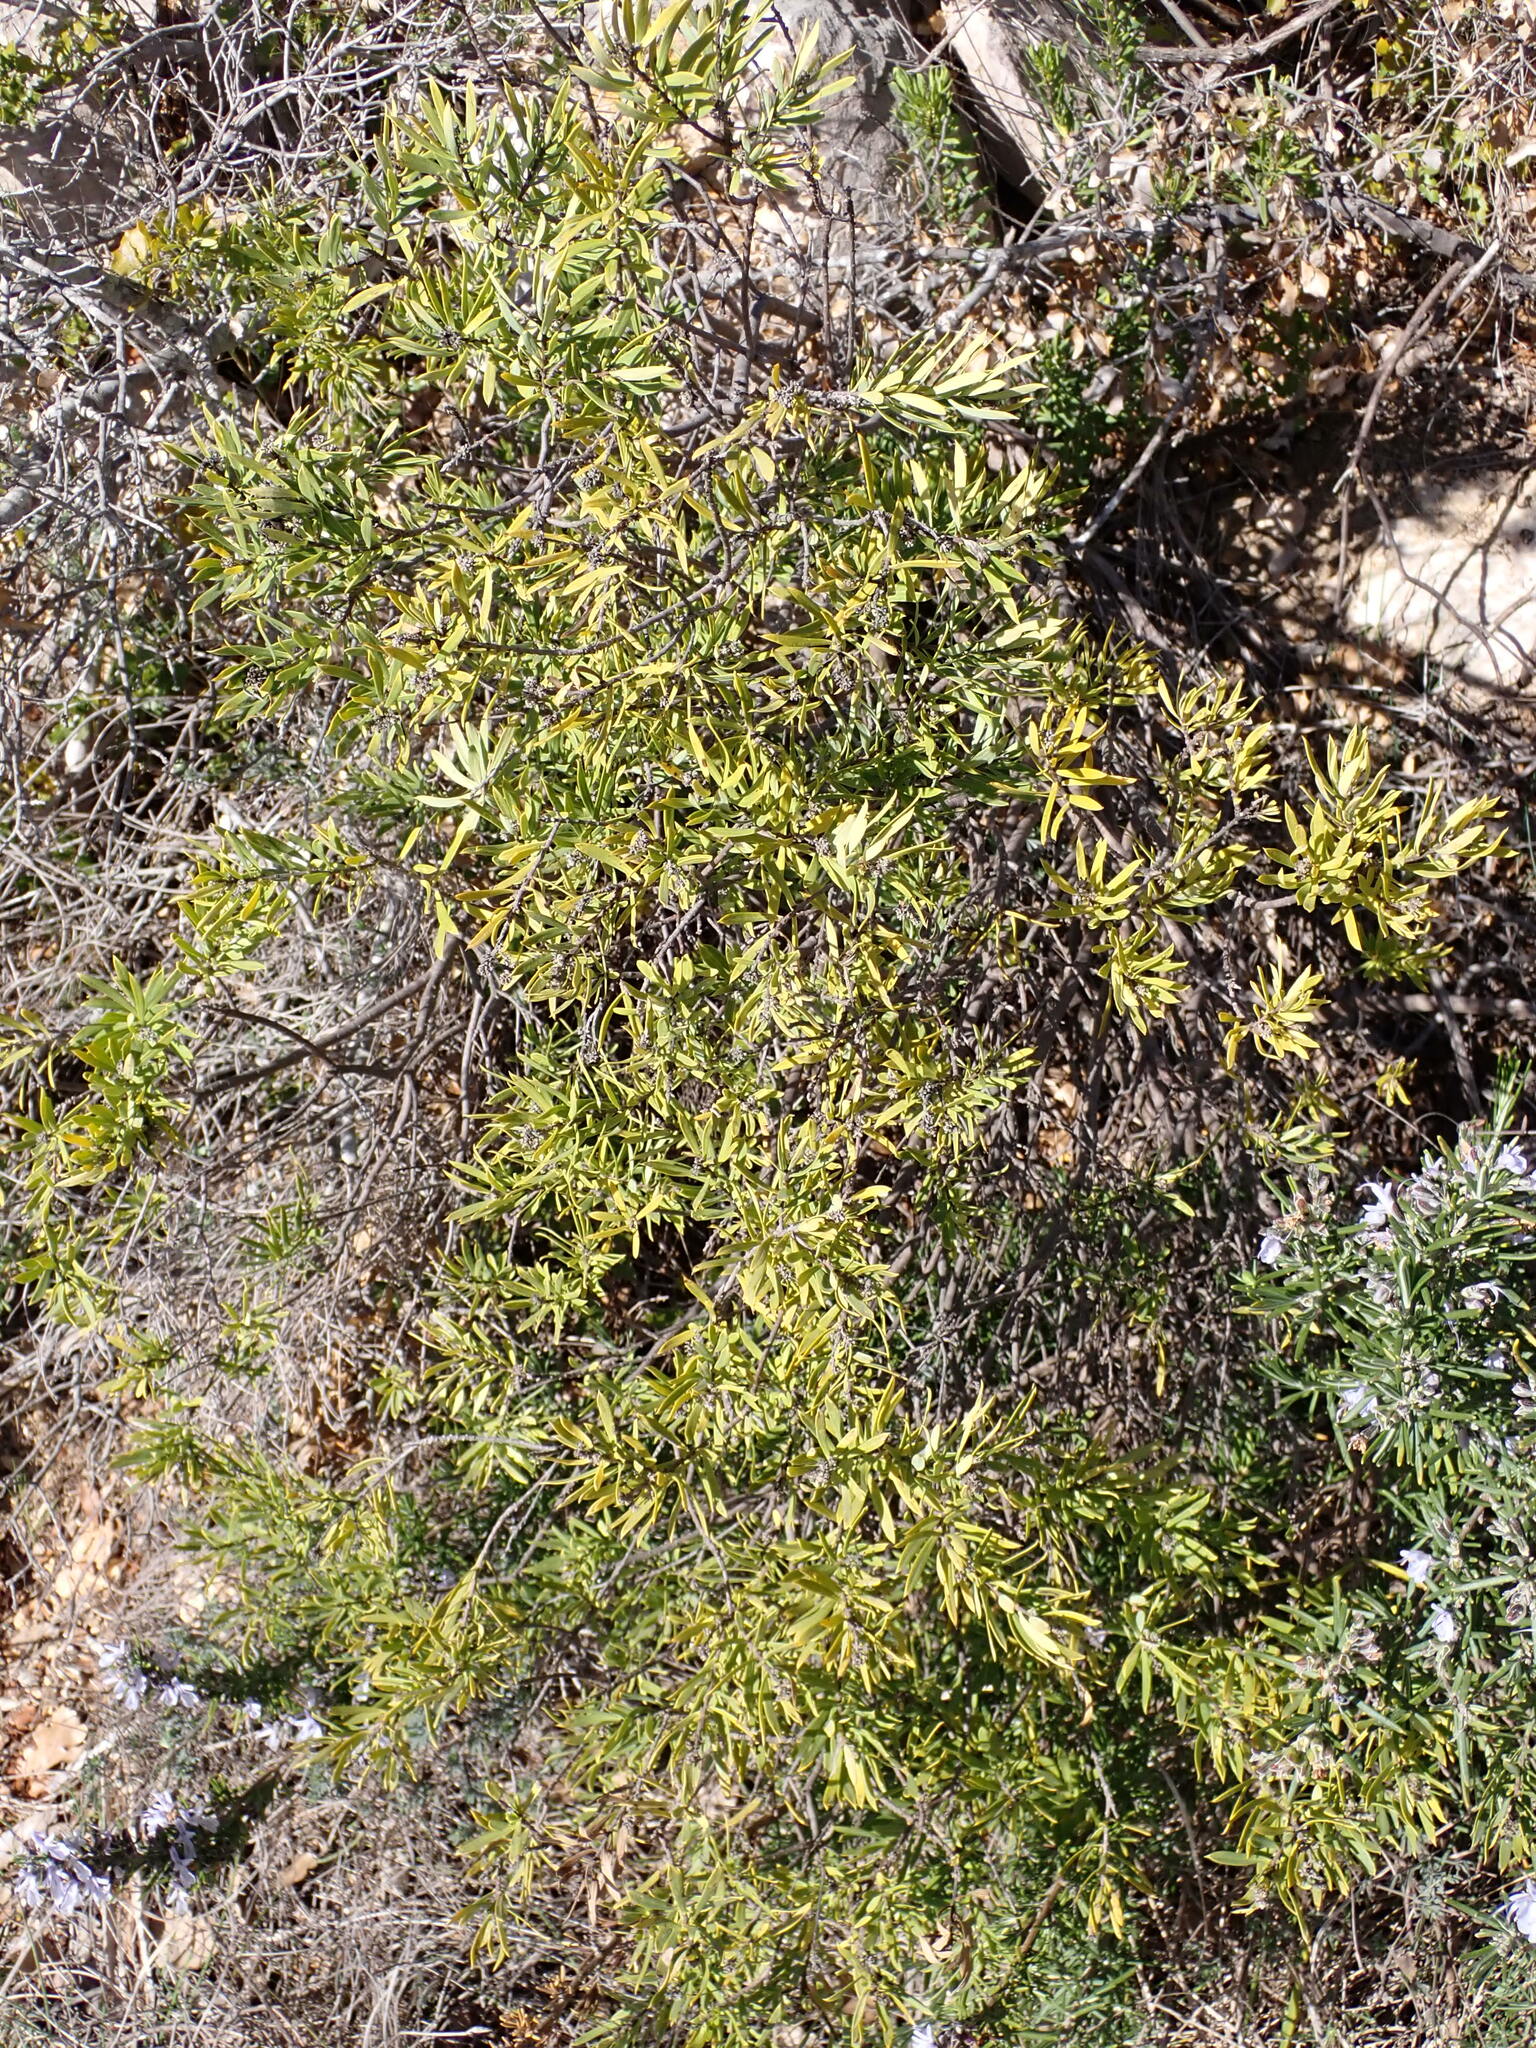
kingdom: Plantae
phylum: Tracheophyta
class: Magnoliopsida
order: Malvales
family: Thymelaeaceae
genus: Daphne
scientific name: Daphne gnidium
